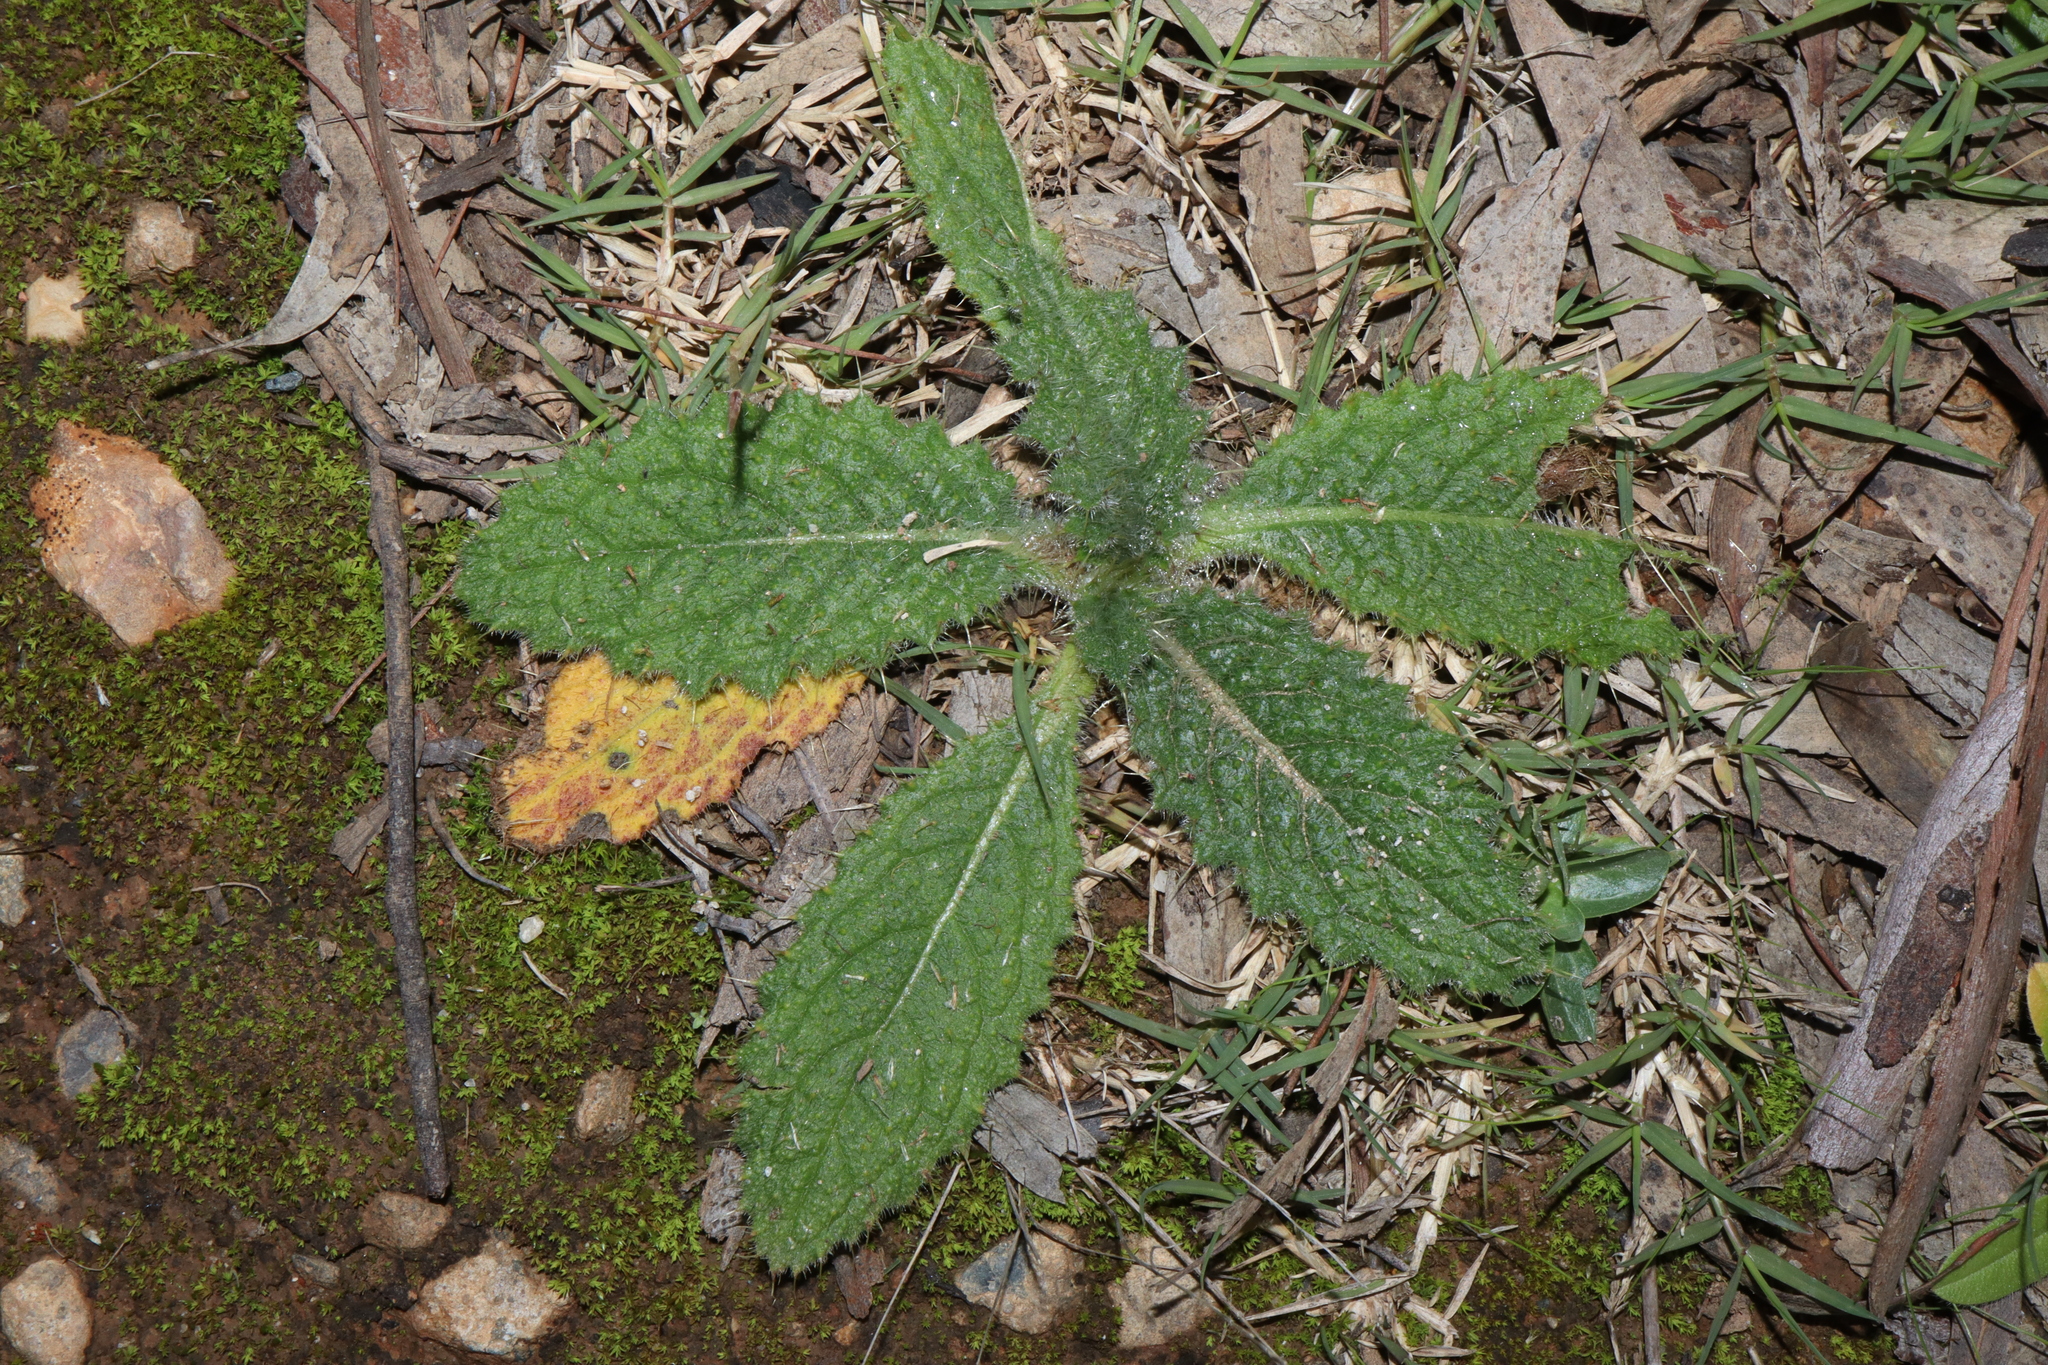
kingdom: Plantae
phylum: Tracheophyta
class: Magnoliopsida
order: Asterales
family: Asteraceae
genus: Cirsium
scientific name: Cirsium vulgare
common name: Bull thistle
